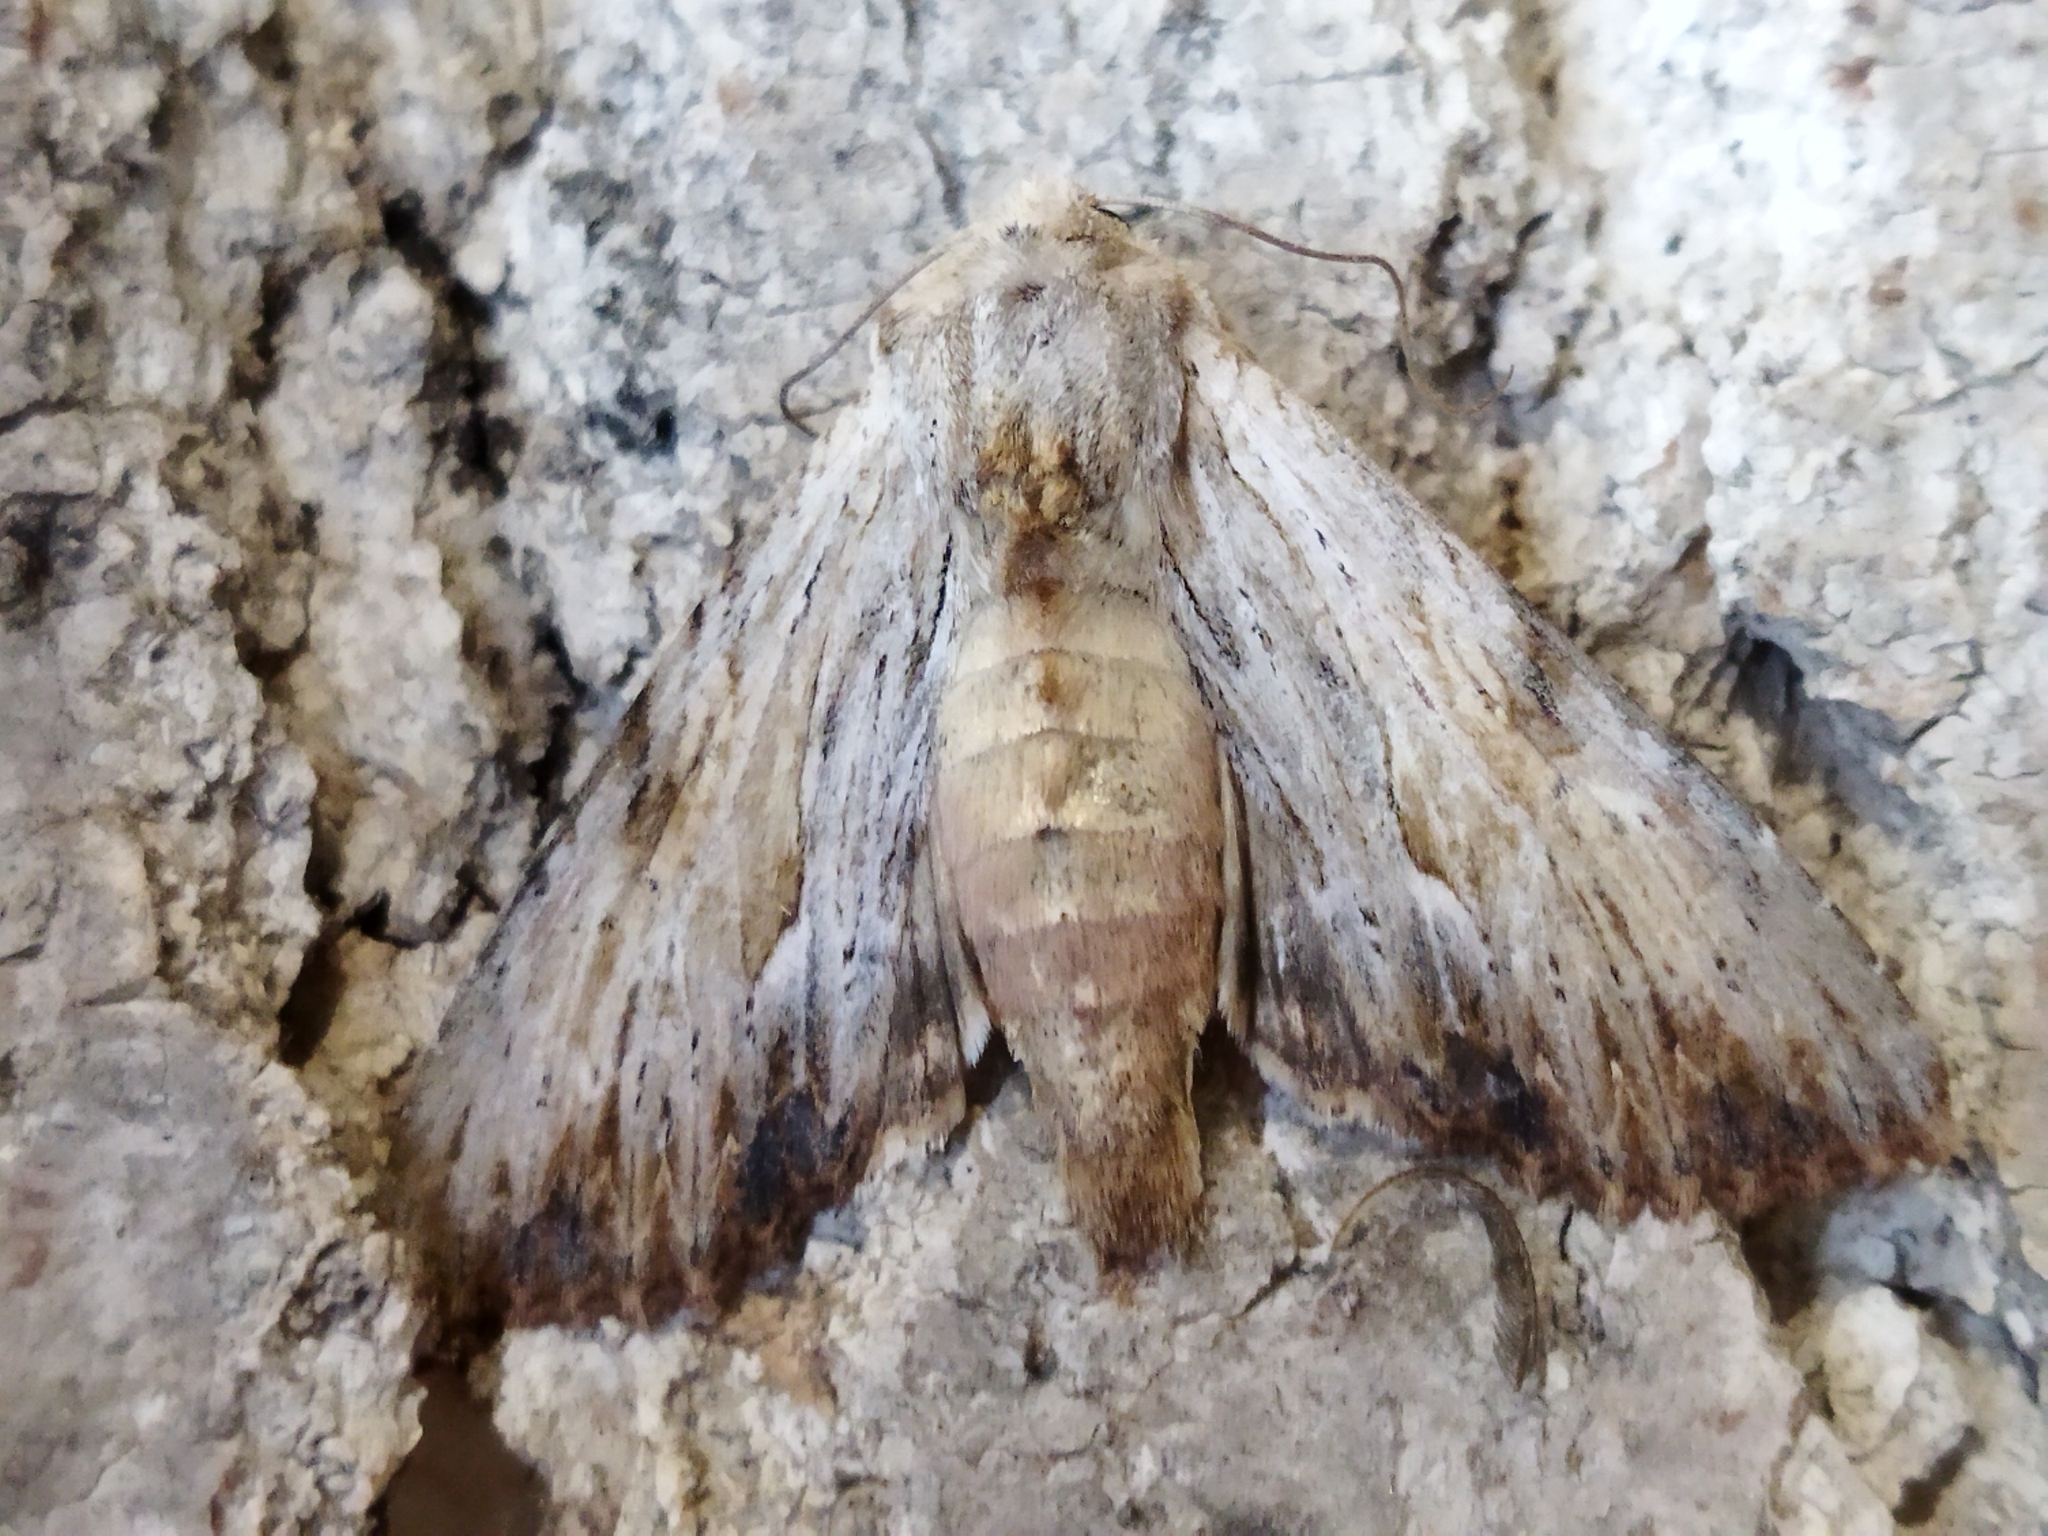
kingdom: Animalia
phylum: Arthropoda
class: Insecta
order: Lepidoptera
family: Noctuidae
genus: Apamea
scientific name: Apamea lithoxylaea
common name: Light arches
